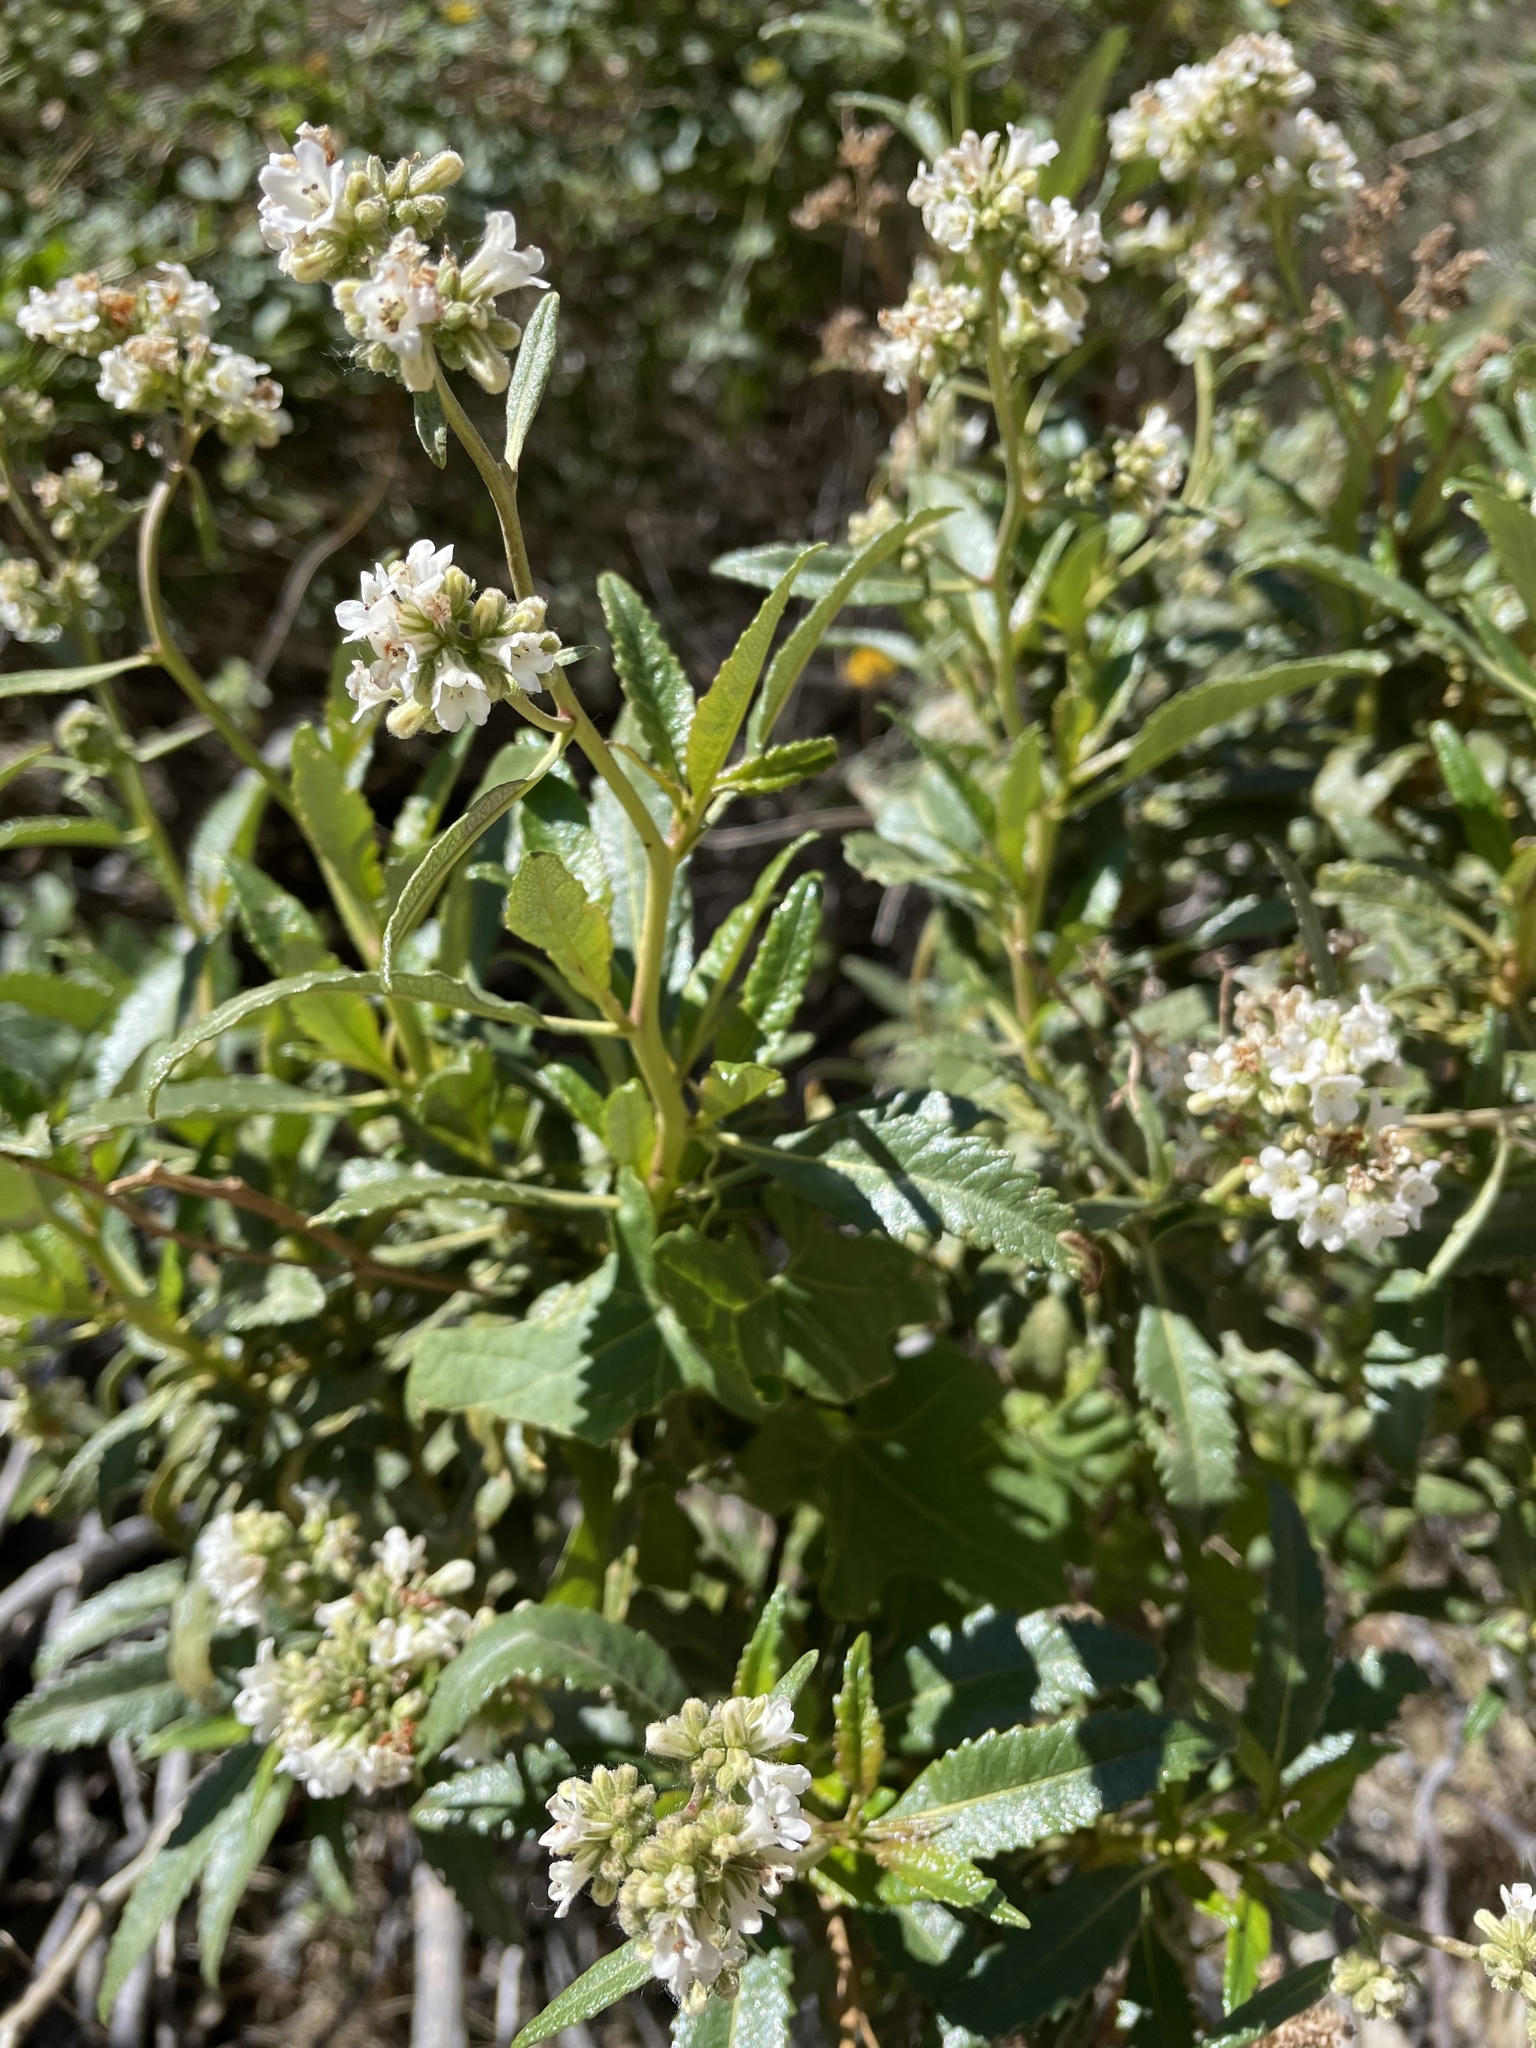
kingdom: Plantae
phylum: Tracheophyta
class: Magnoliopsida
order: Boraginales
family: Namaceae
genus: Eriodictyon
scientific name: Eriodictyon trichocalyx
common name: Hairy yerba-santa
